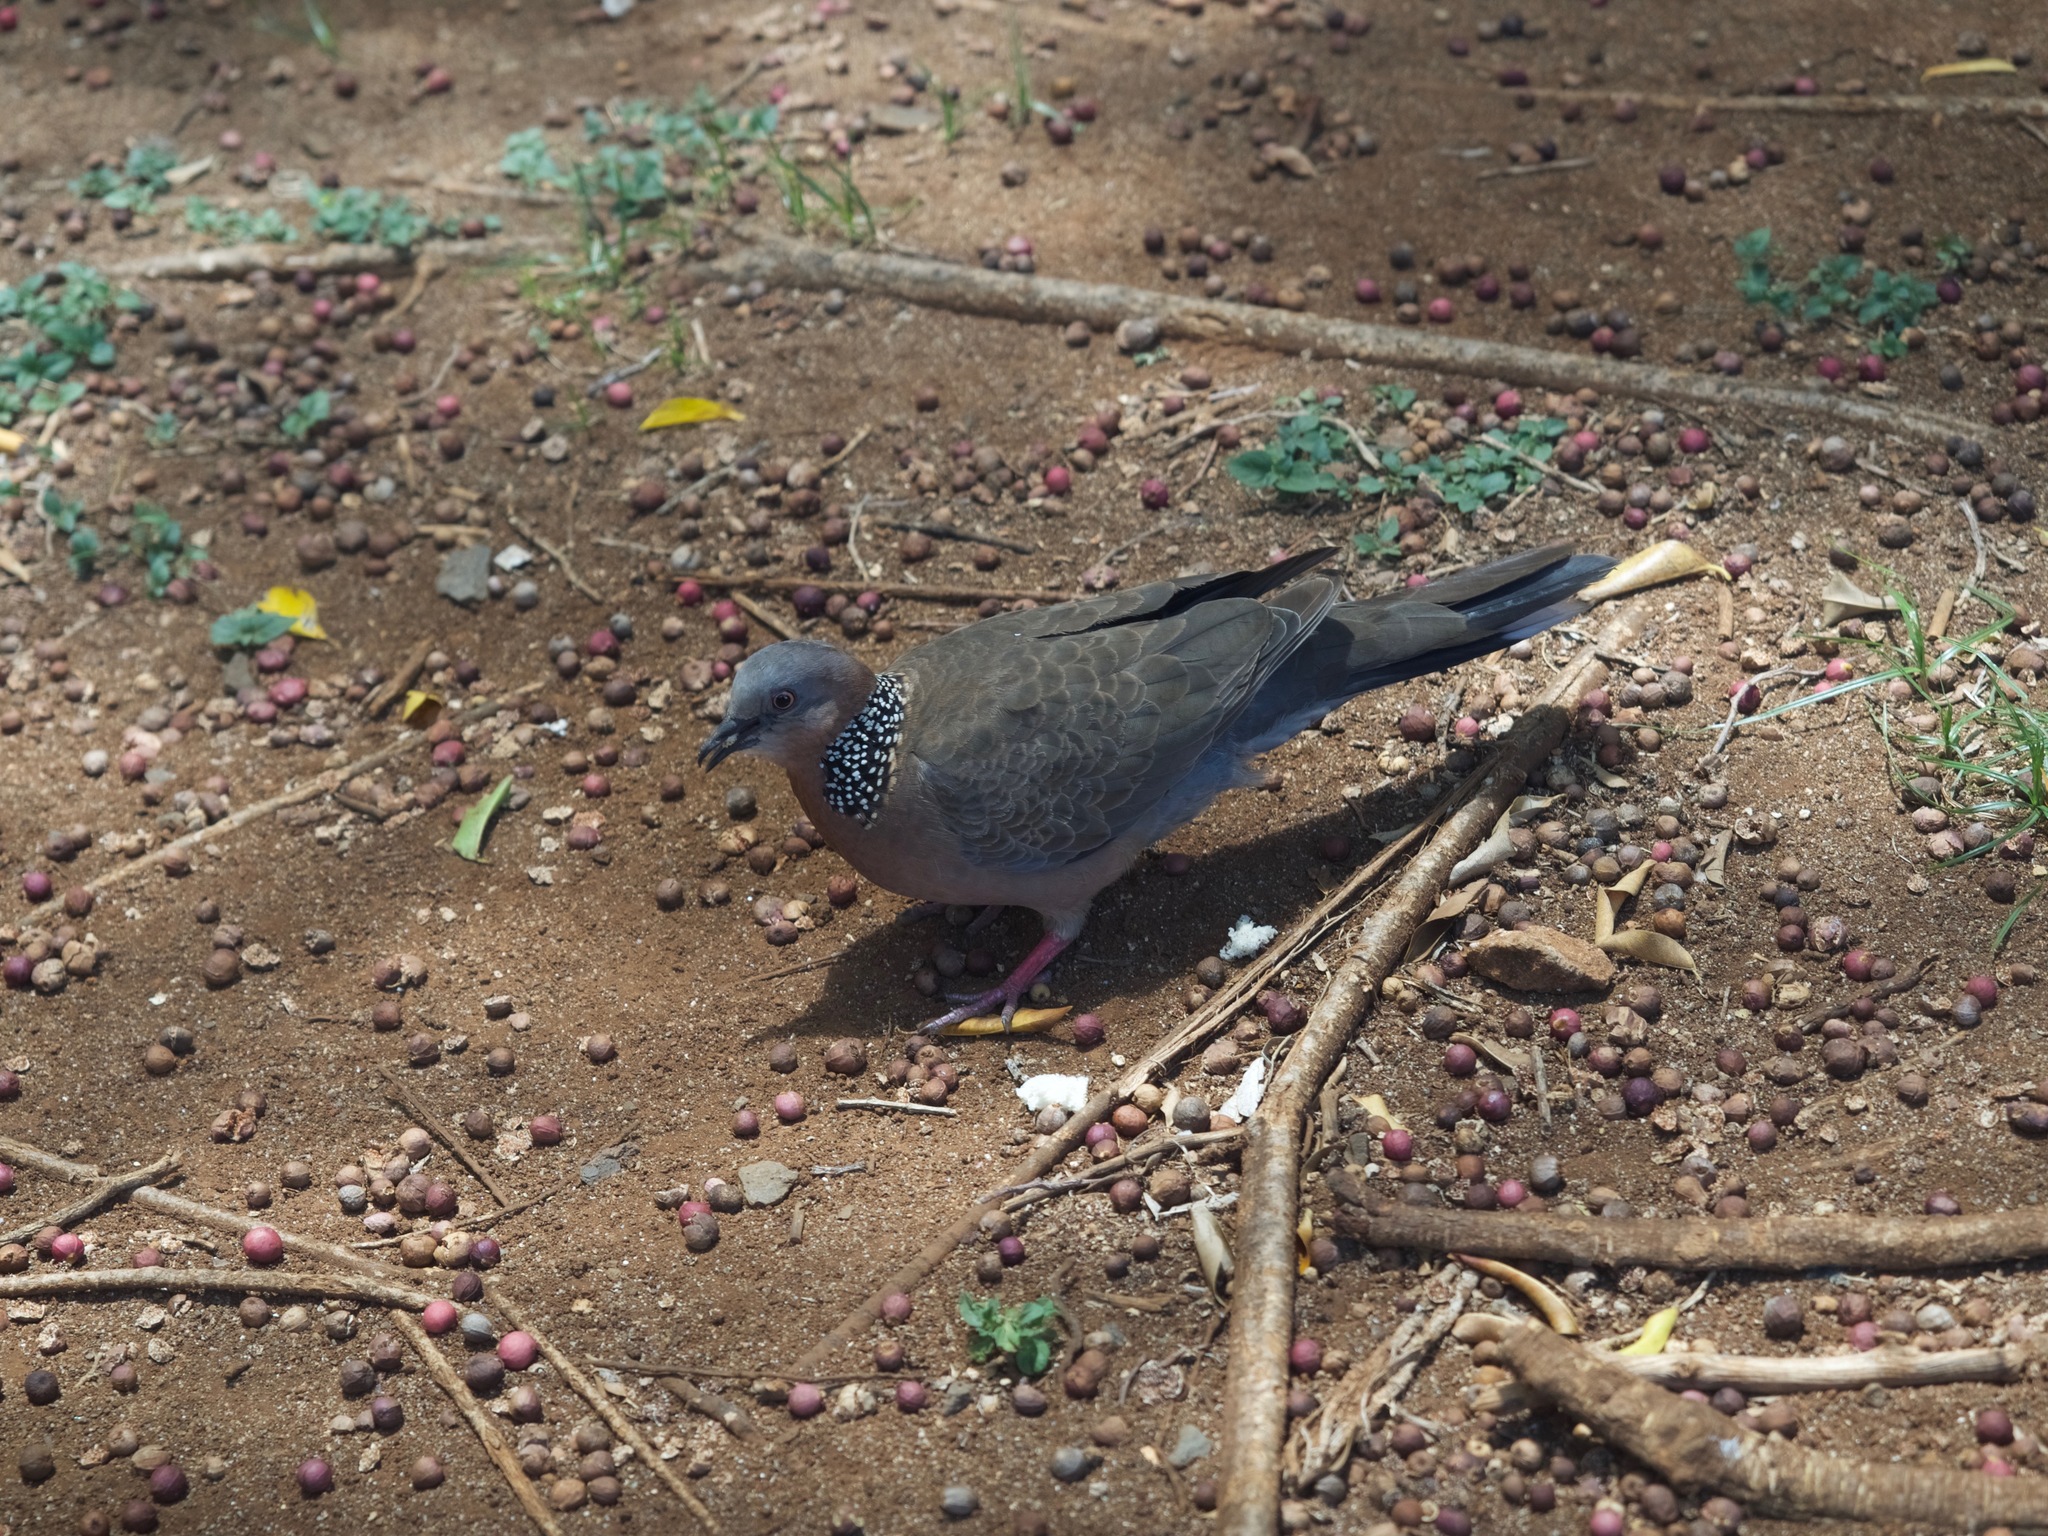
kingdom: Animalia
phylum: Chordata
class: Aves
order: Columbiformes
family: Columbidae
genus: Spilopelia
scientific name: Spilopelia chinensis
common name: Spotted dove
